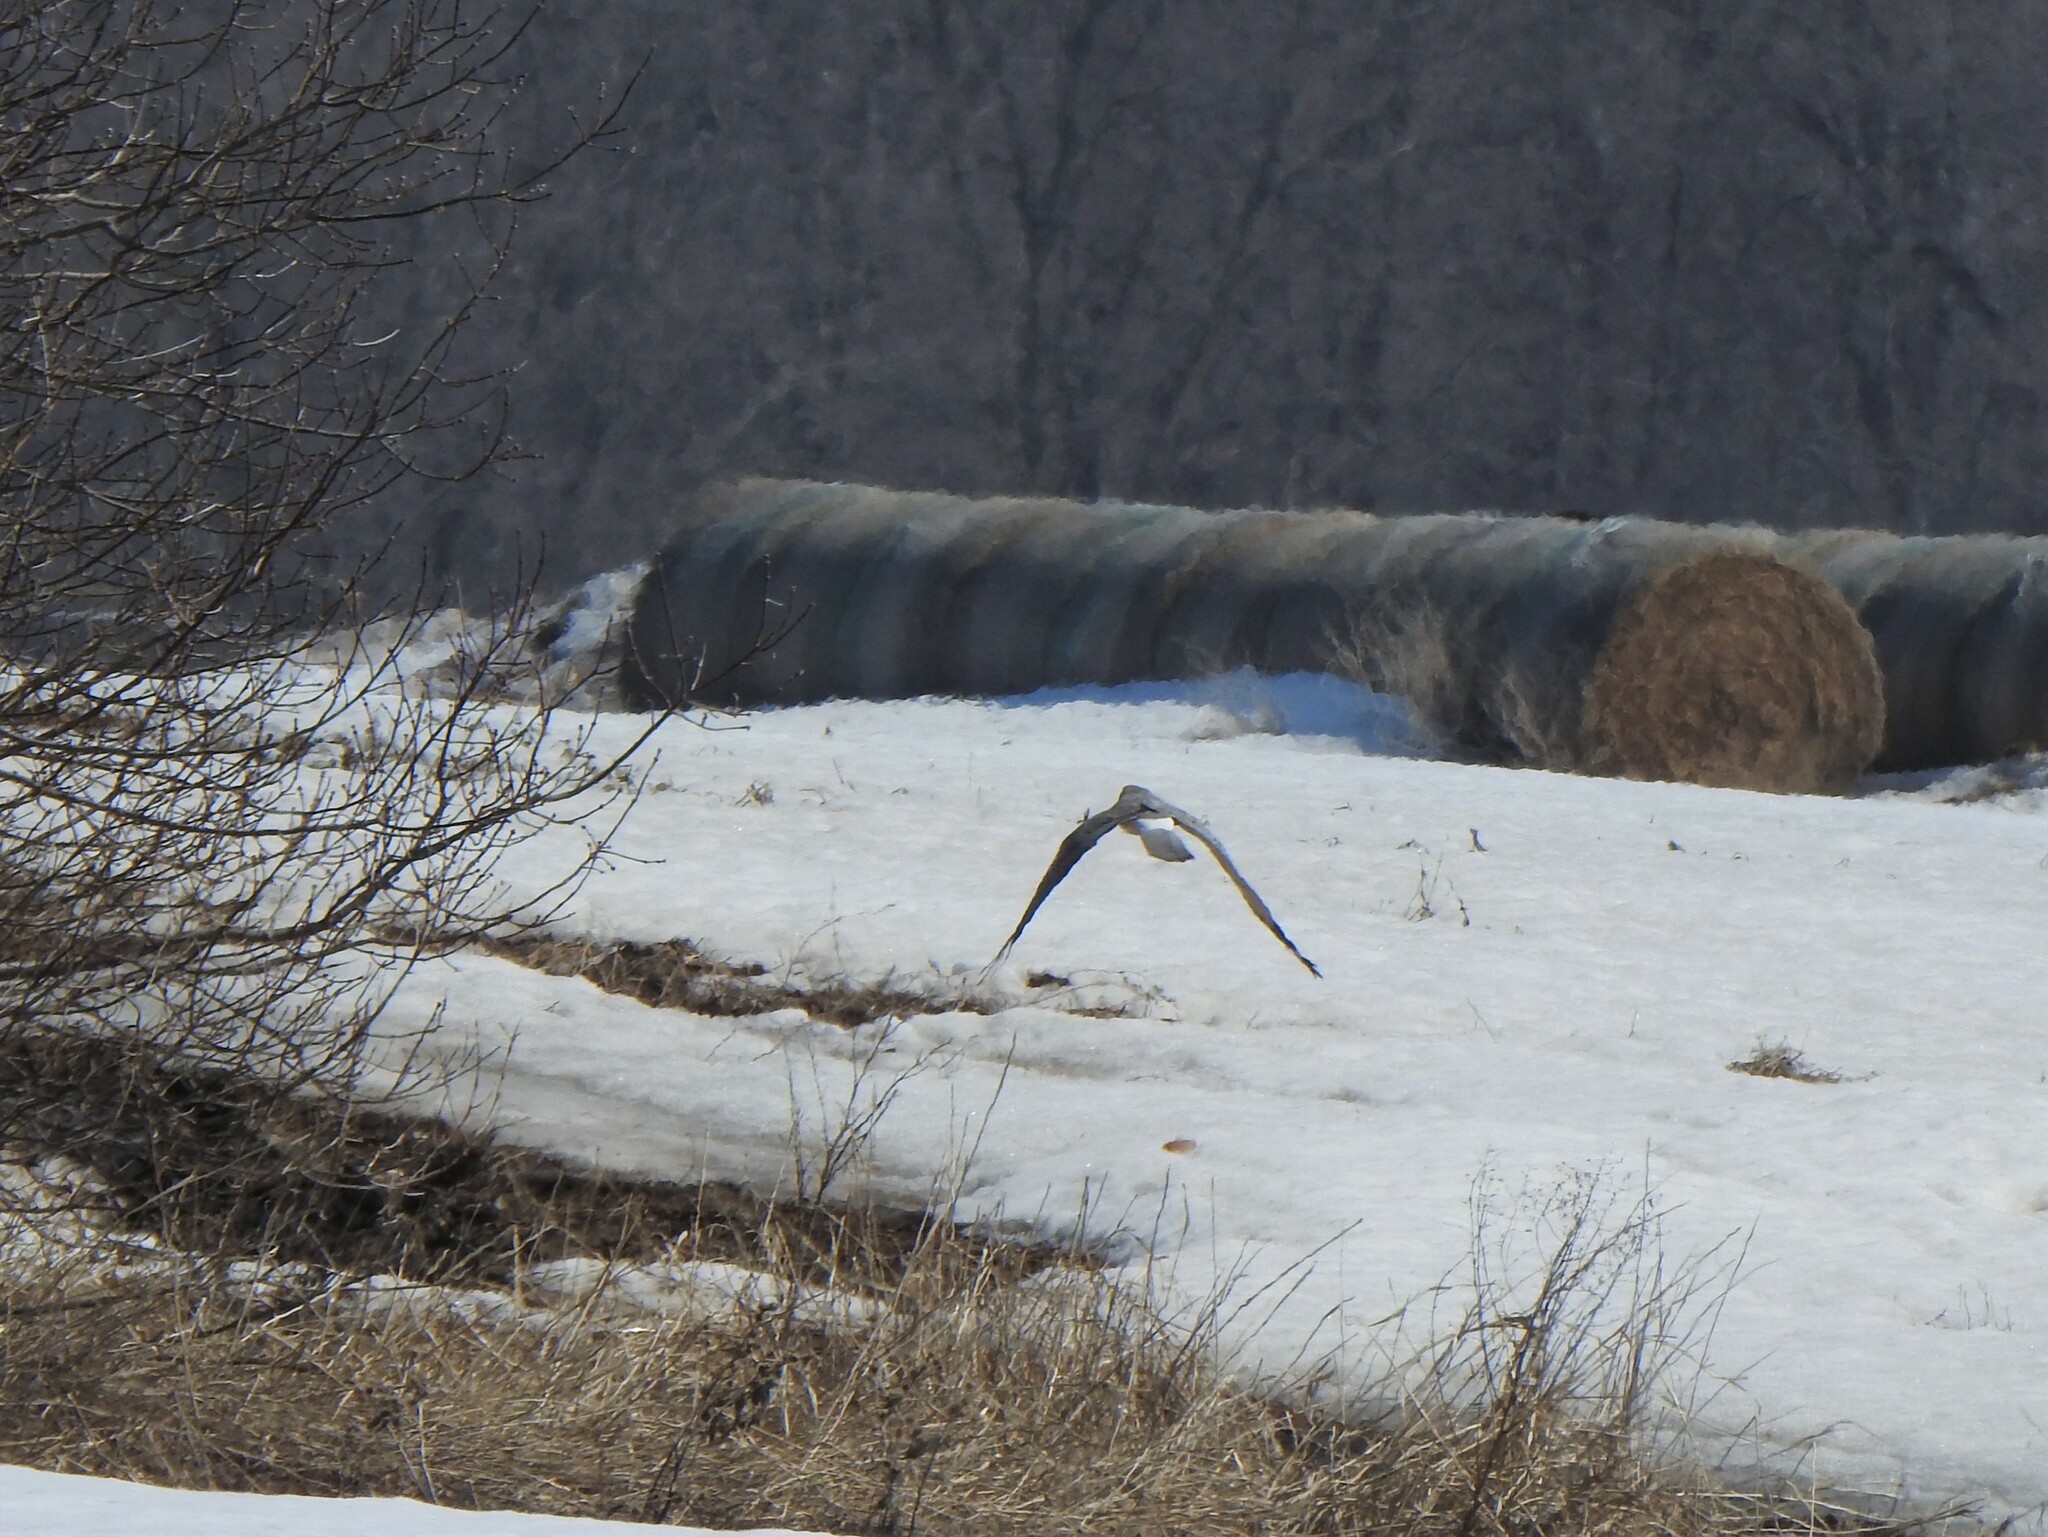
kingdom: Animalia
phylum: Chordata
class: Aves
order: Accipitriformes
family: Accipitridae
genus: Circus
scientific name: Circus cyaneus
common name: Hen harrier
